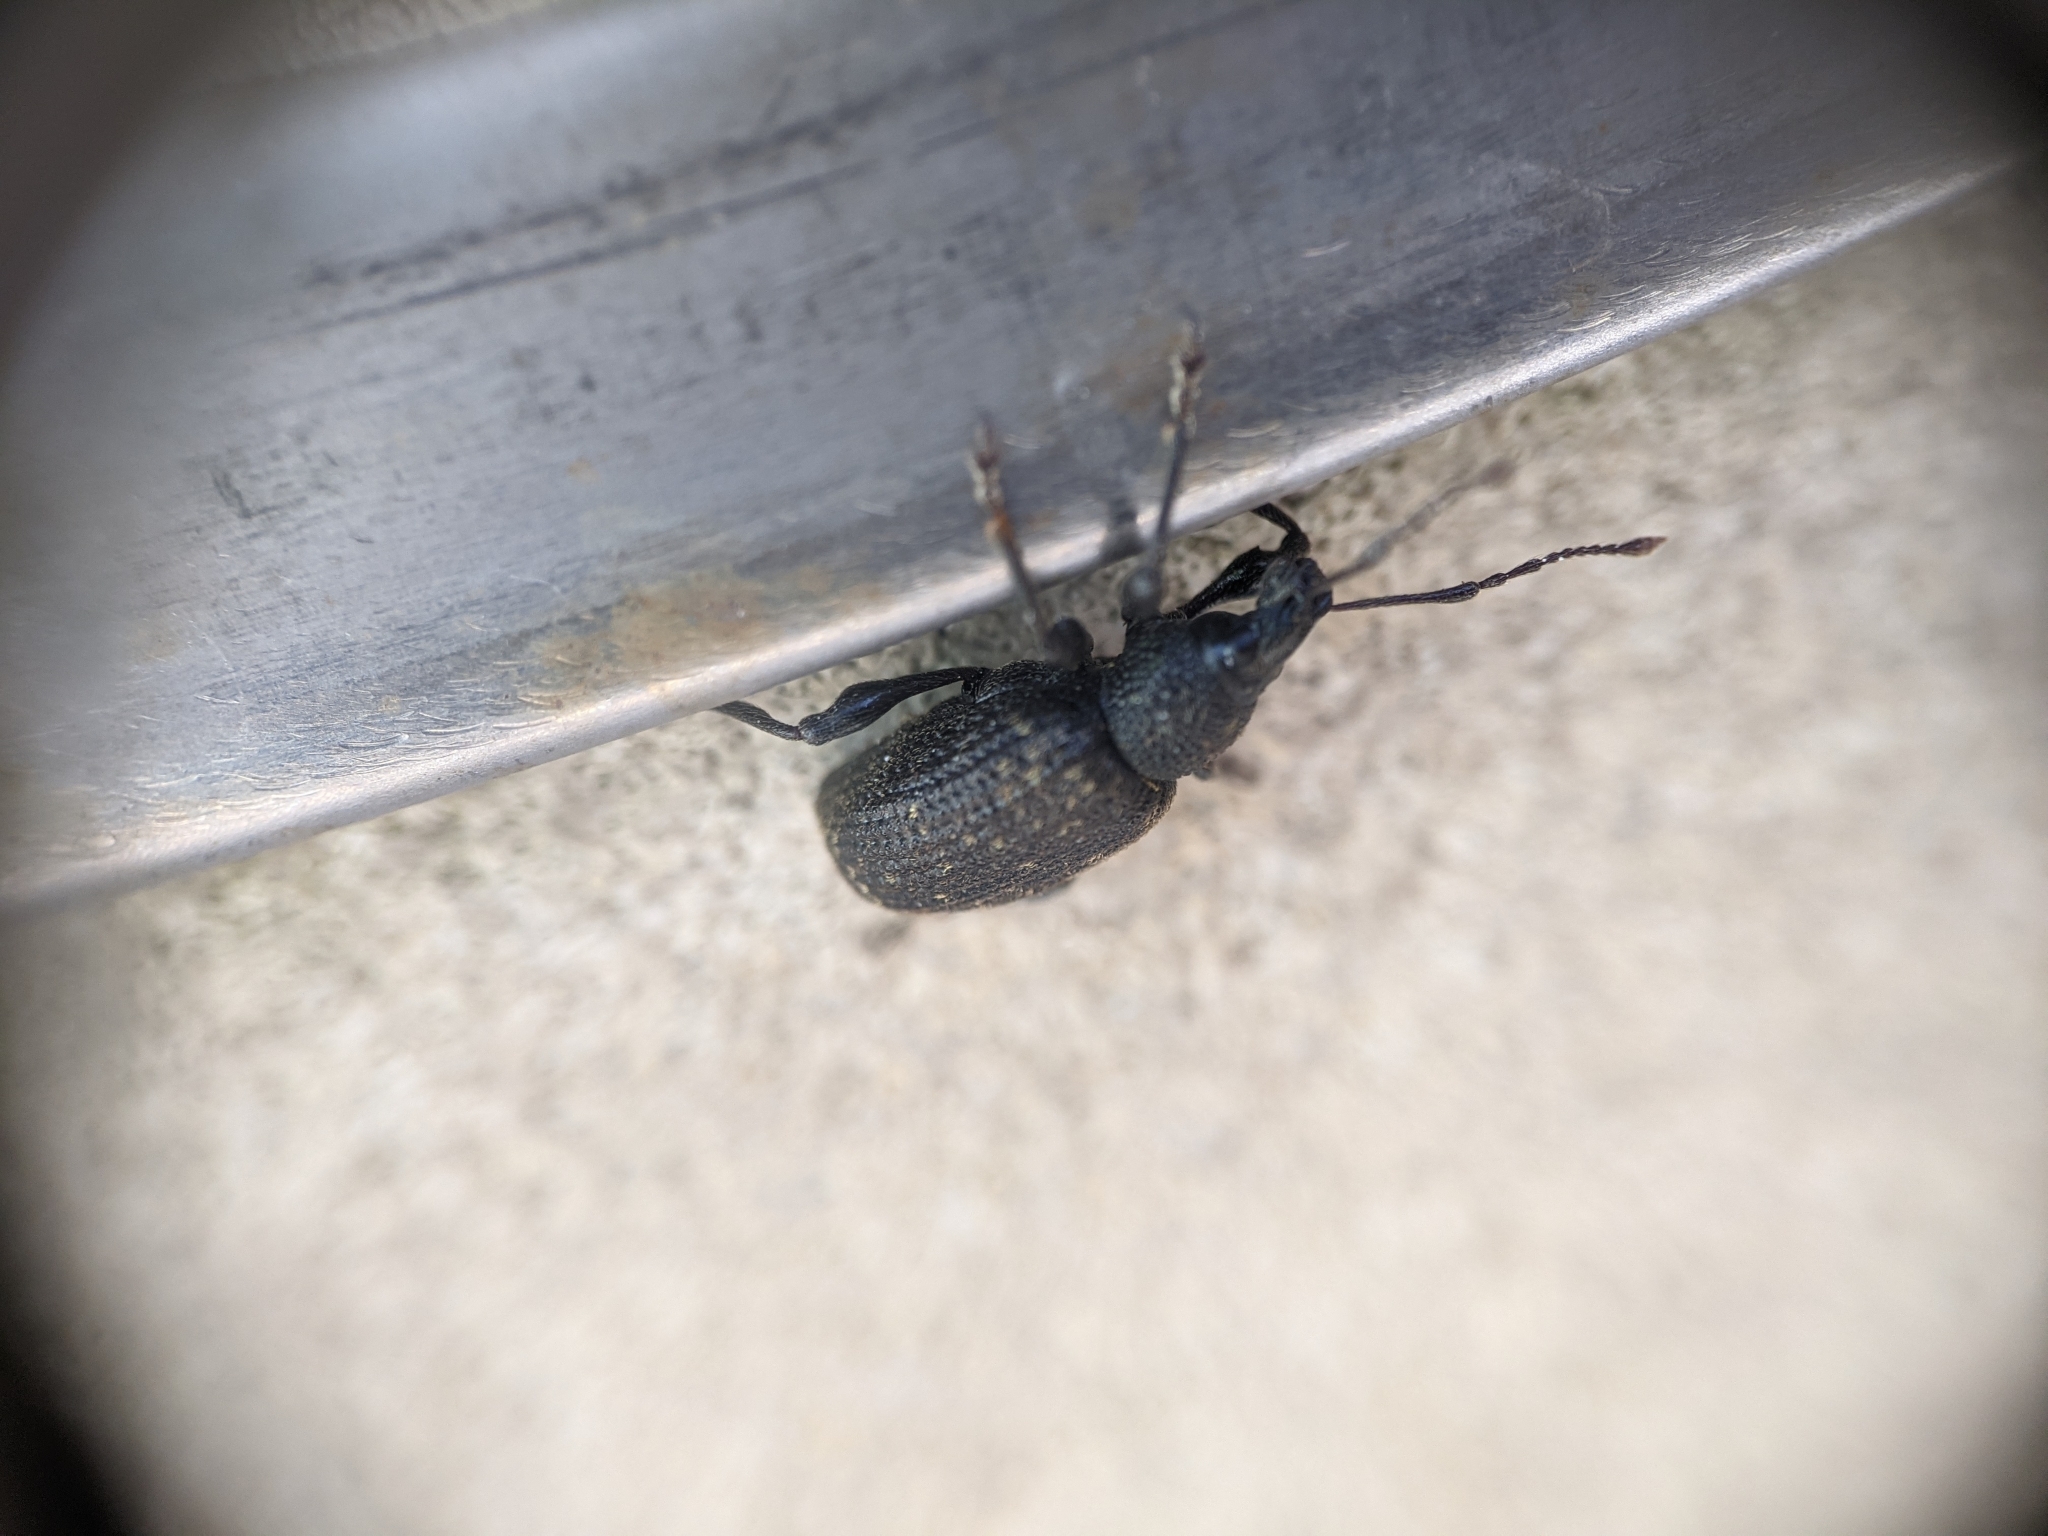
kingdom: Animalia
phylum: Arthropoda
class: Insecta
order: Coleoptera
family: Curculionidae
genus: Otiorhynchus
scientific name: Otiorhynchus sulcatus
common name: Black vine weevil
